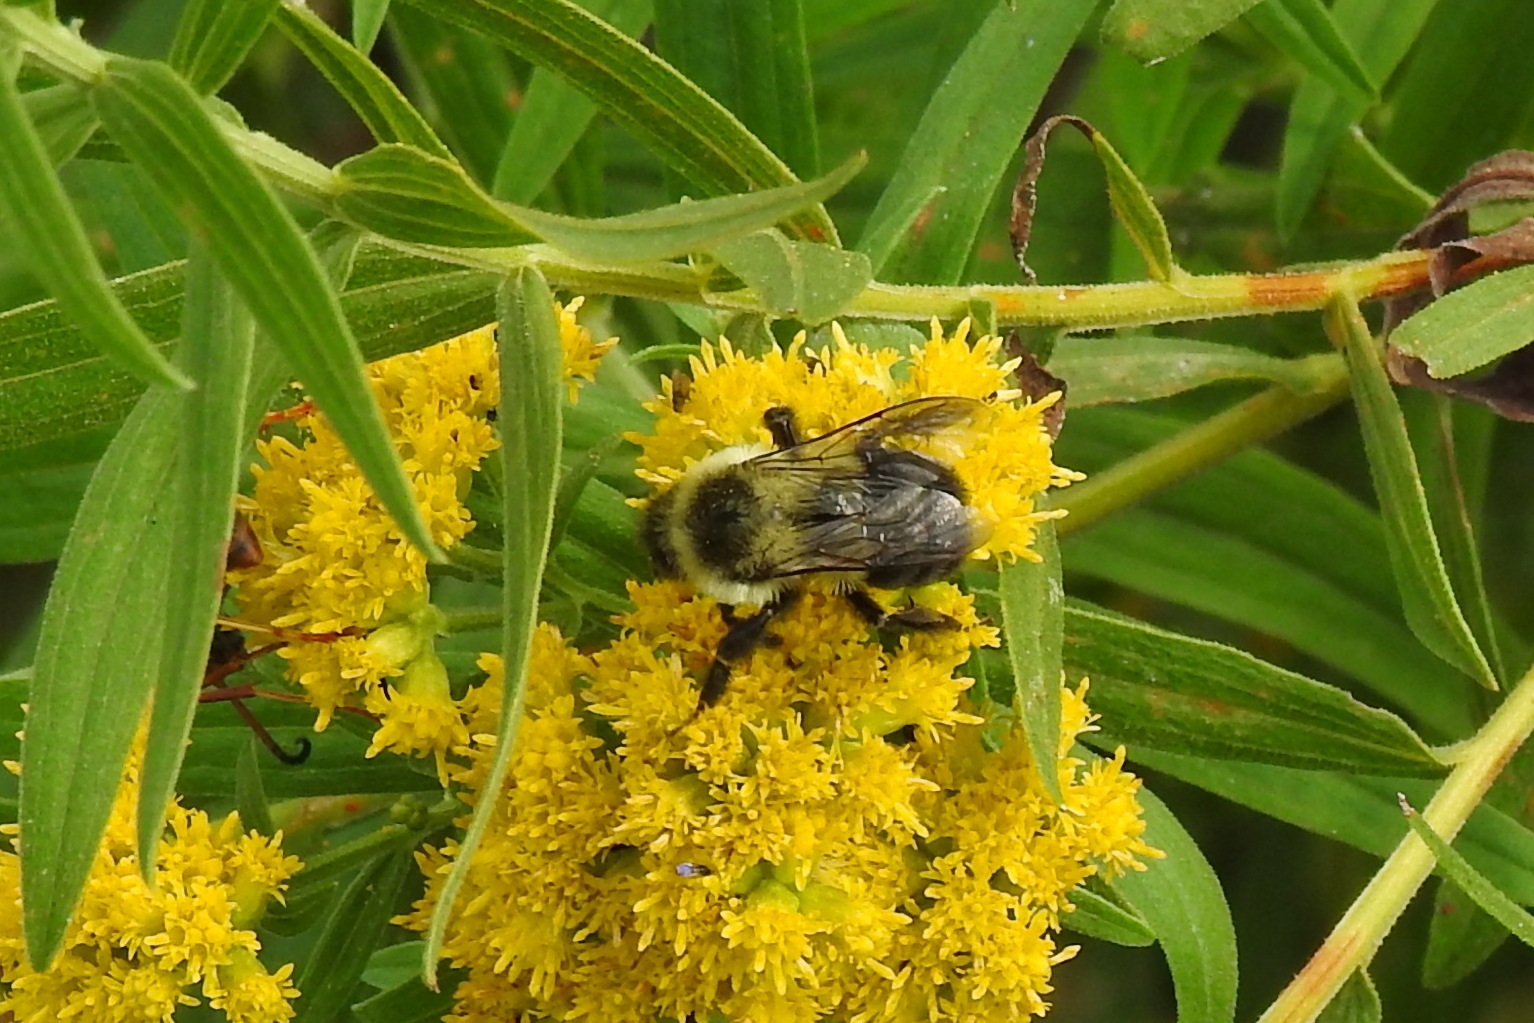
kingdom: Animalia
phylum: Arthropoda
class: Insecta
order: Hymenoptera
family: Apidae
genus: Bombus
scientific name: Bombus impatiens
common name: Common eastern bumble bee
